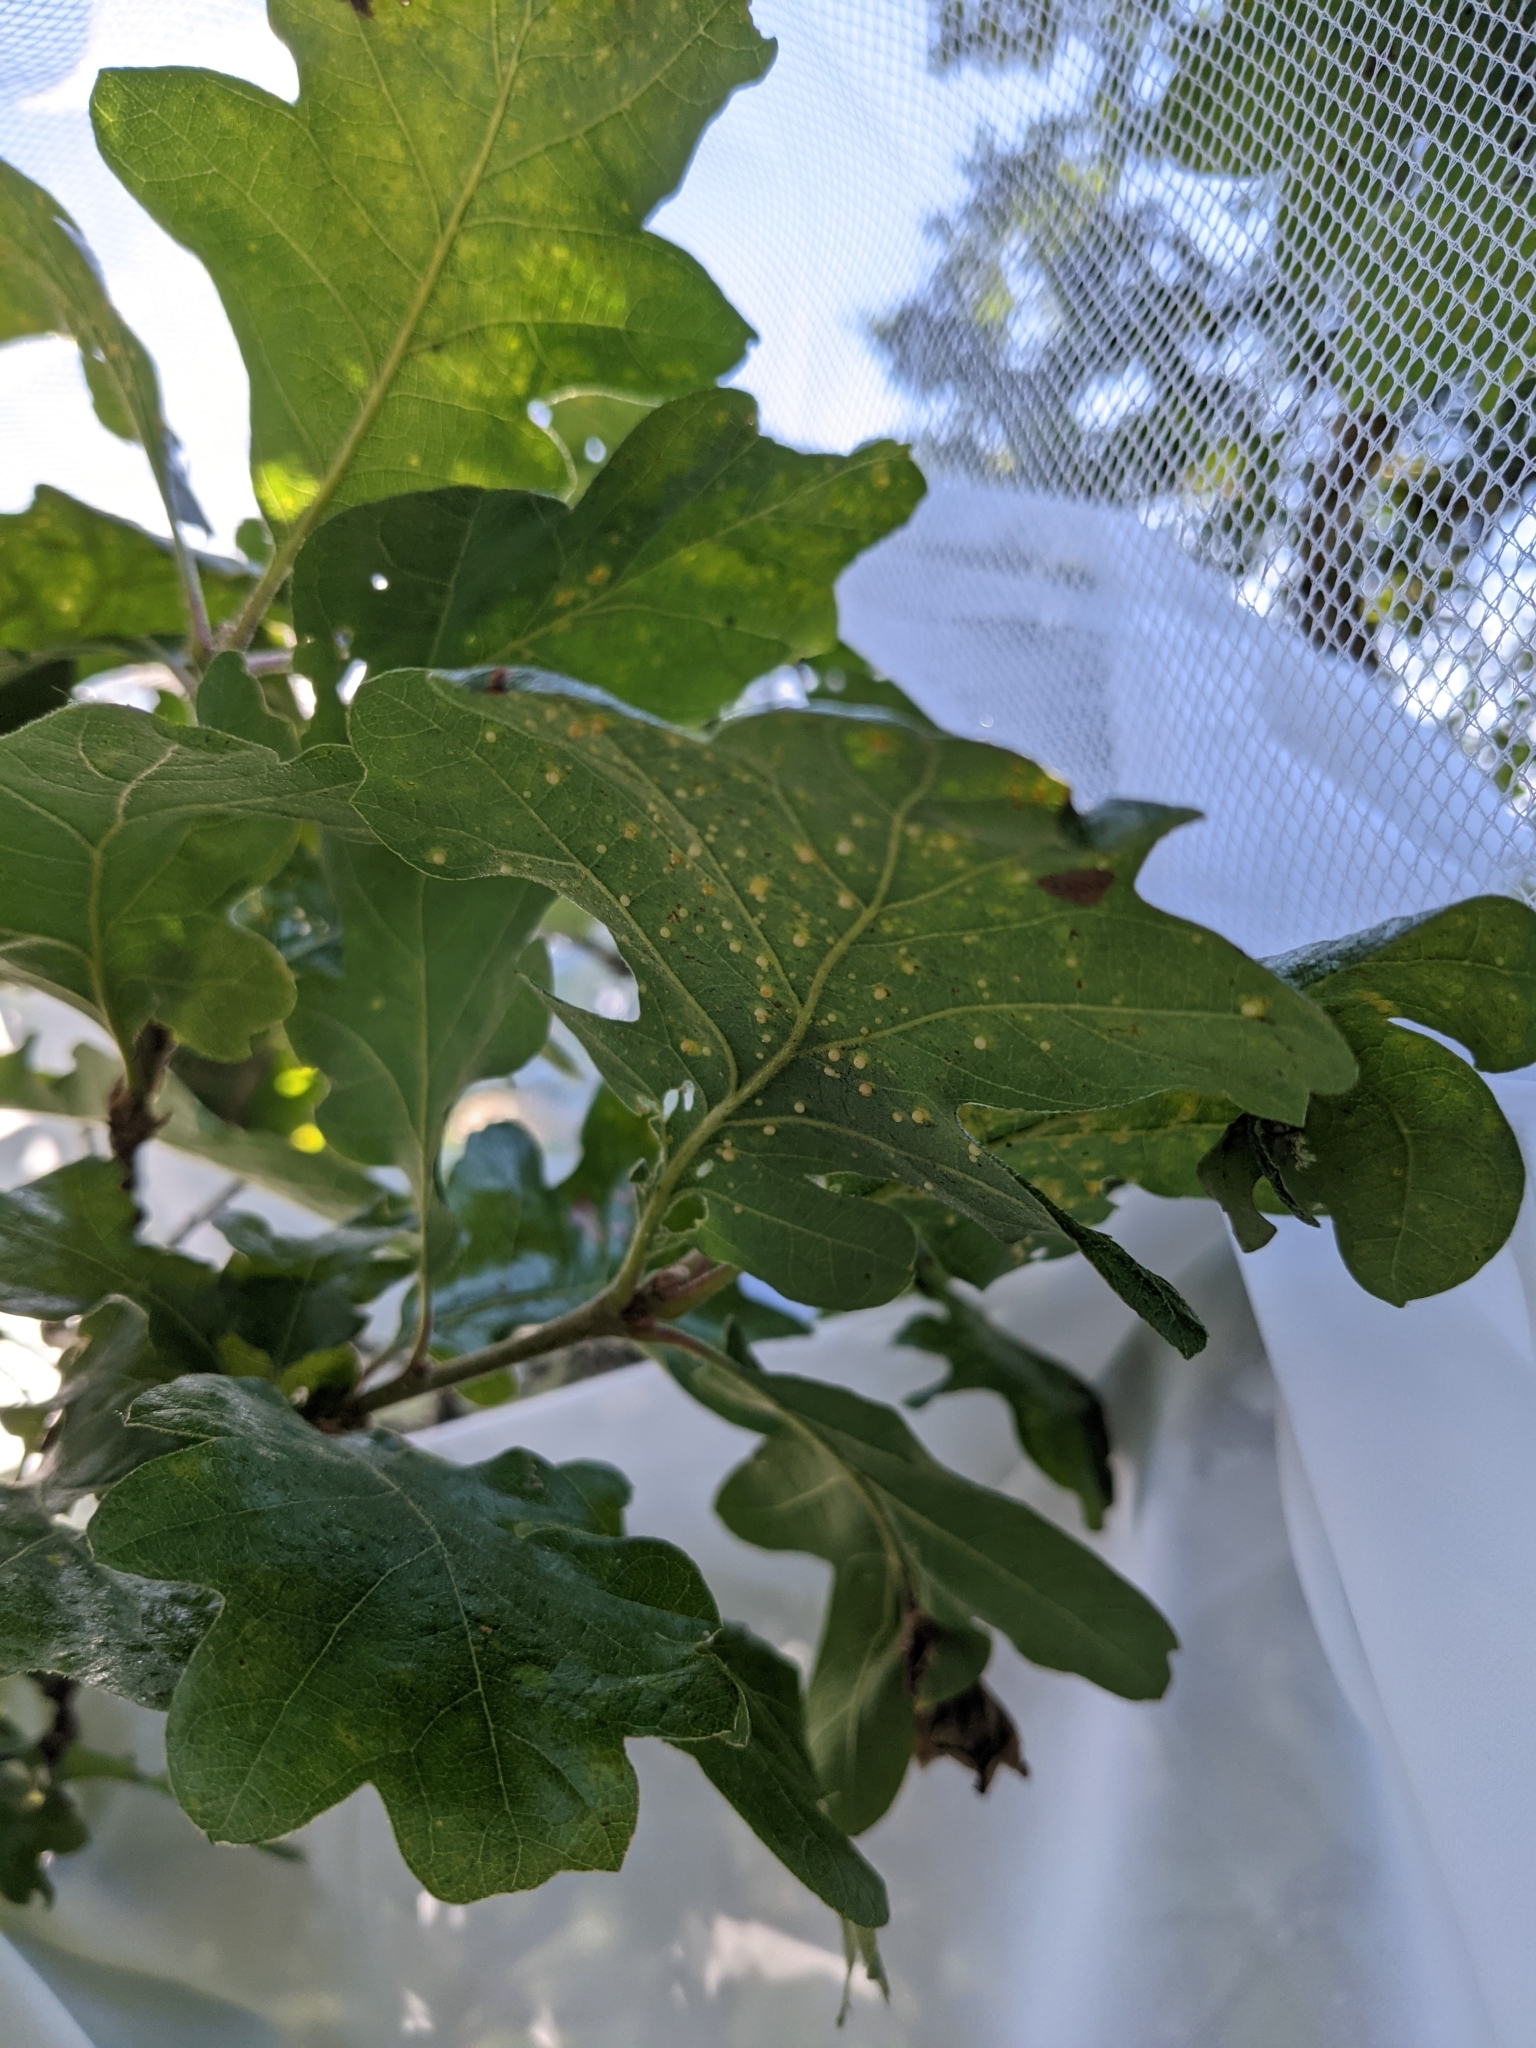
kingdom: Animalia
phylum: Arthropoda
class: Insecta
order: Hymenoptera
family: Cynipidae
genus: Neuroterus
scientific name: Neuroterus saltarius
